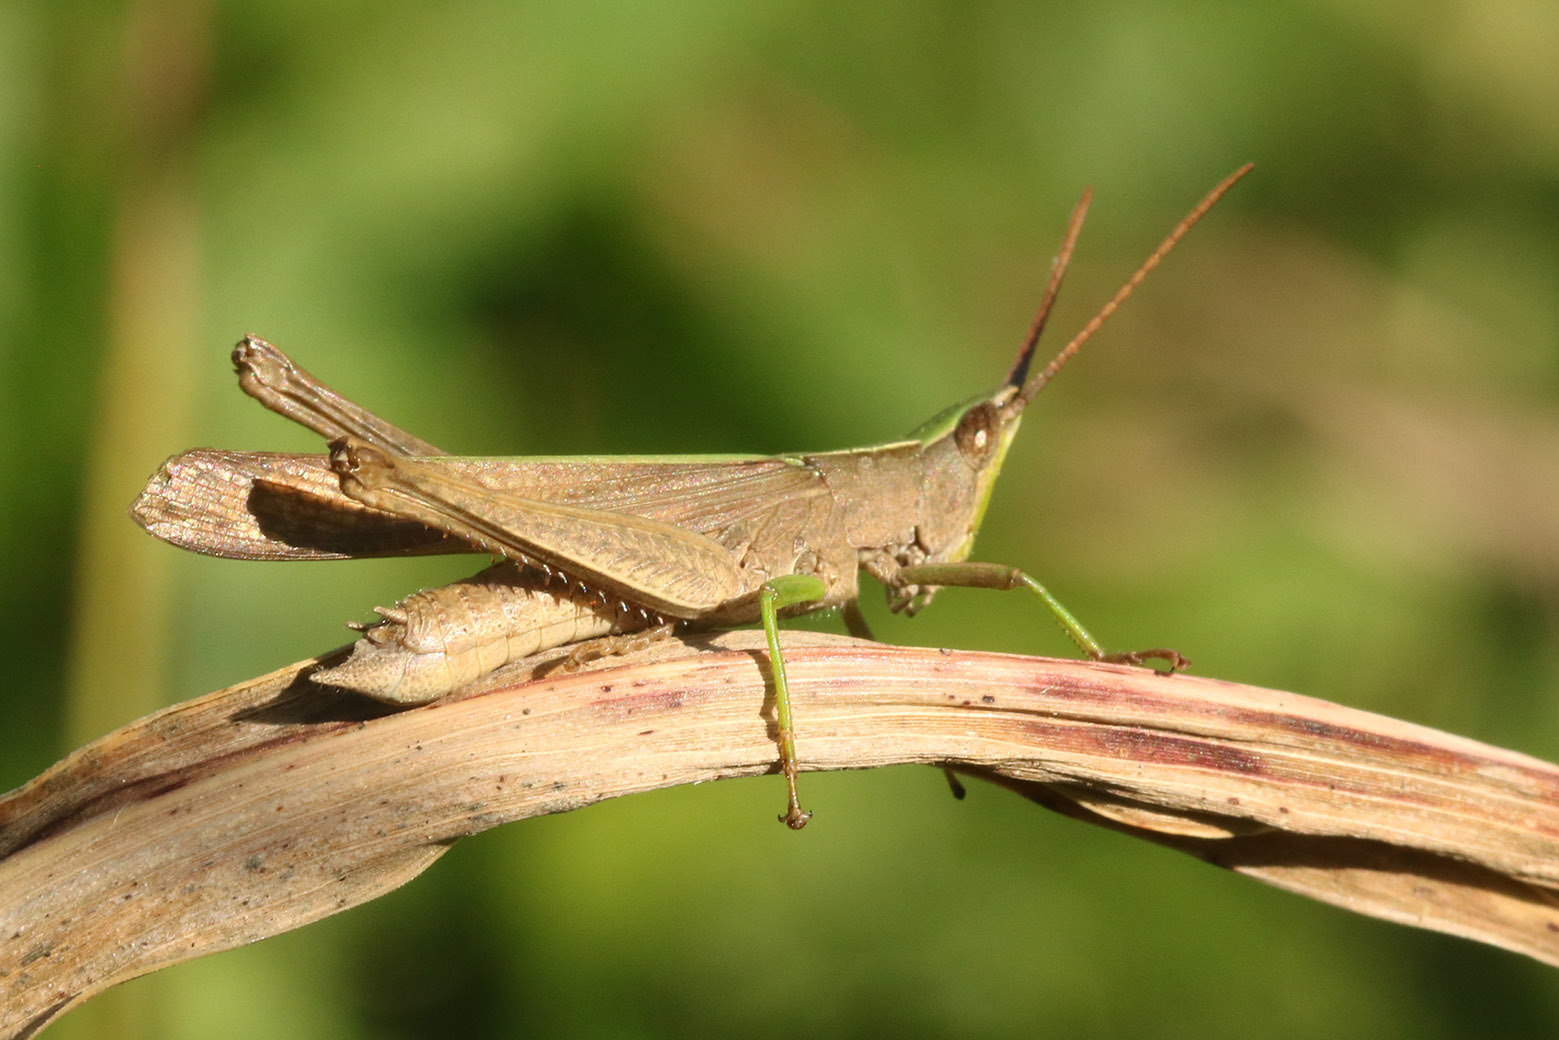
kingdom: Animalia
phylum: Arthropoda
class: Insecta
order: Orthoptera
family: Acrididae
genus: Metaleptea
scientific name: Metaleptea adspersa
